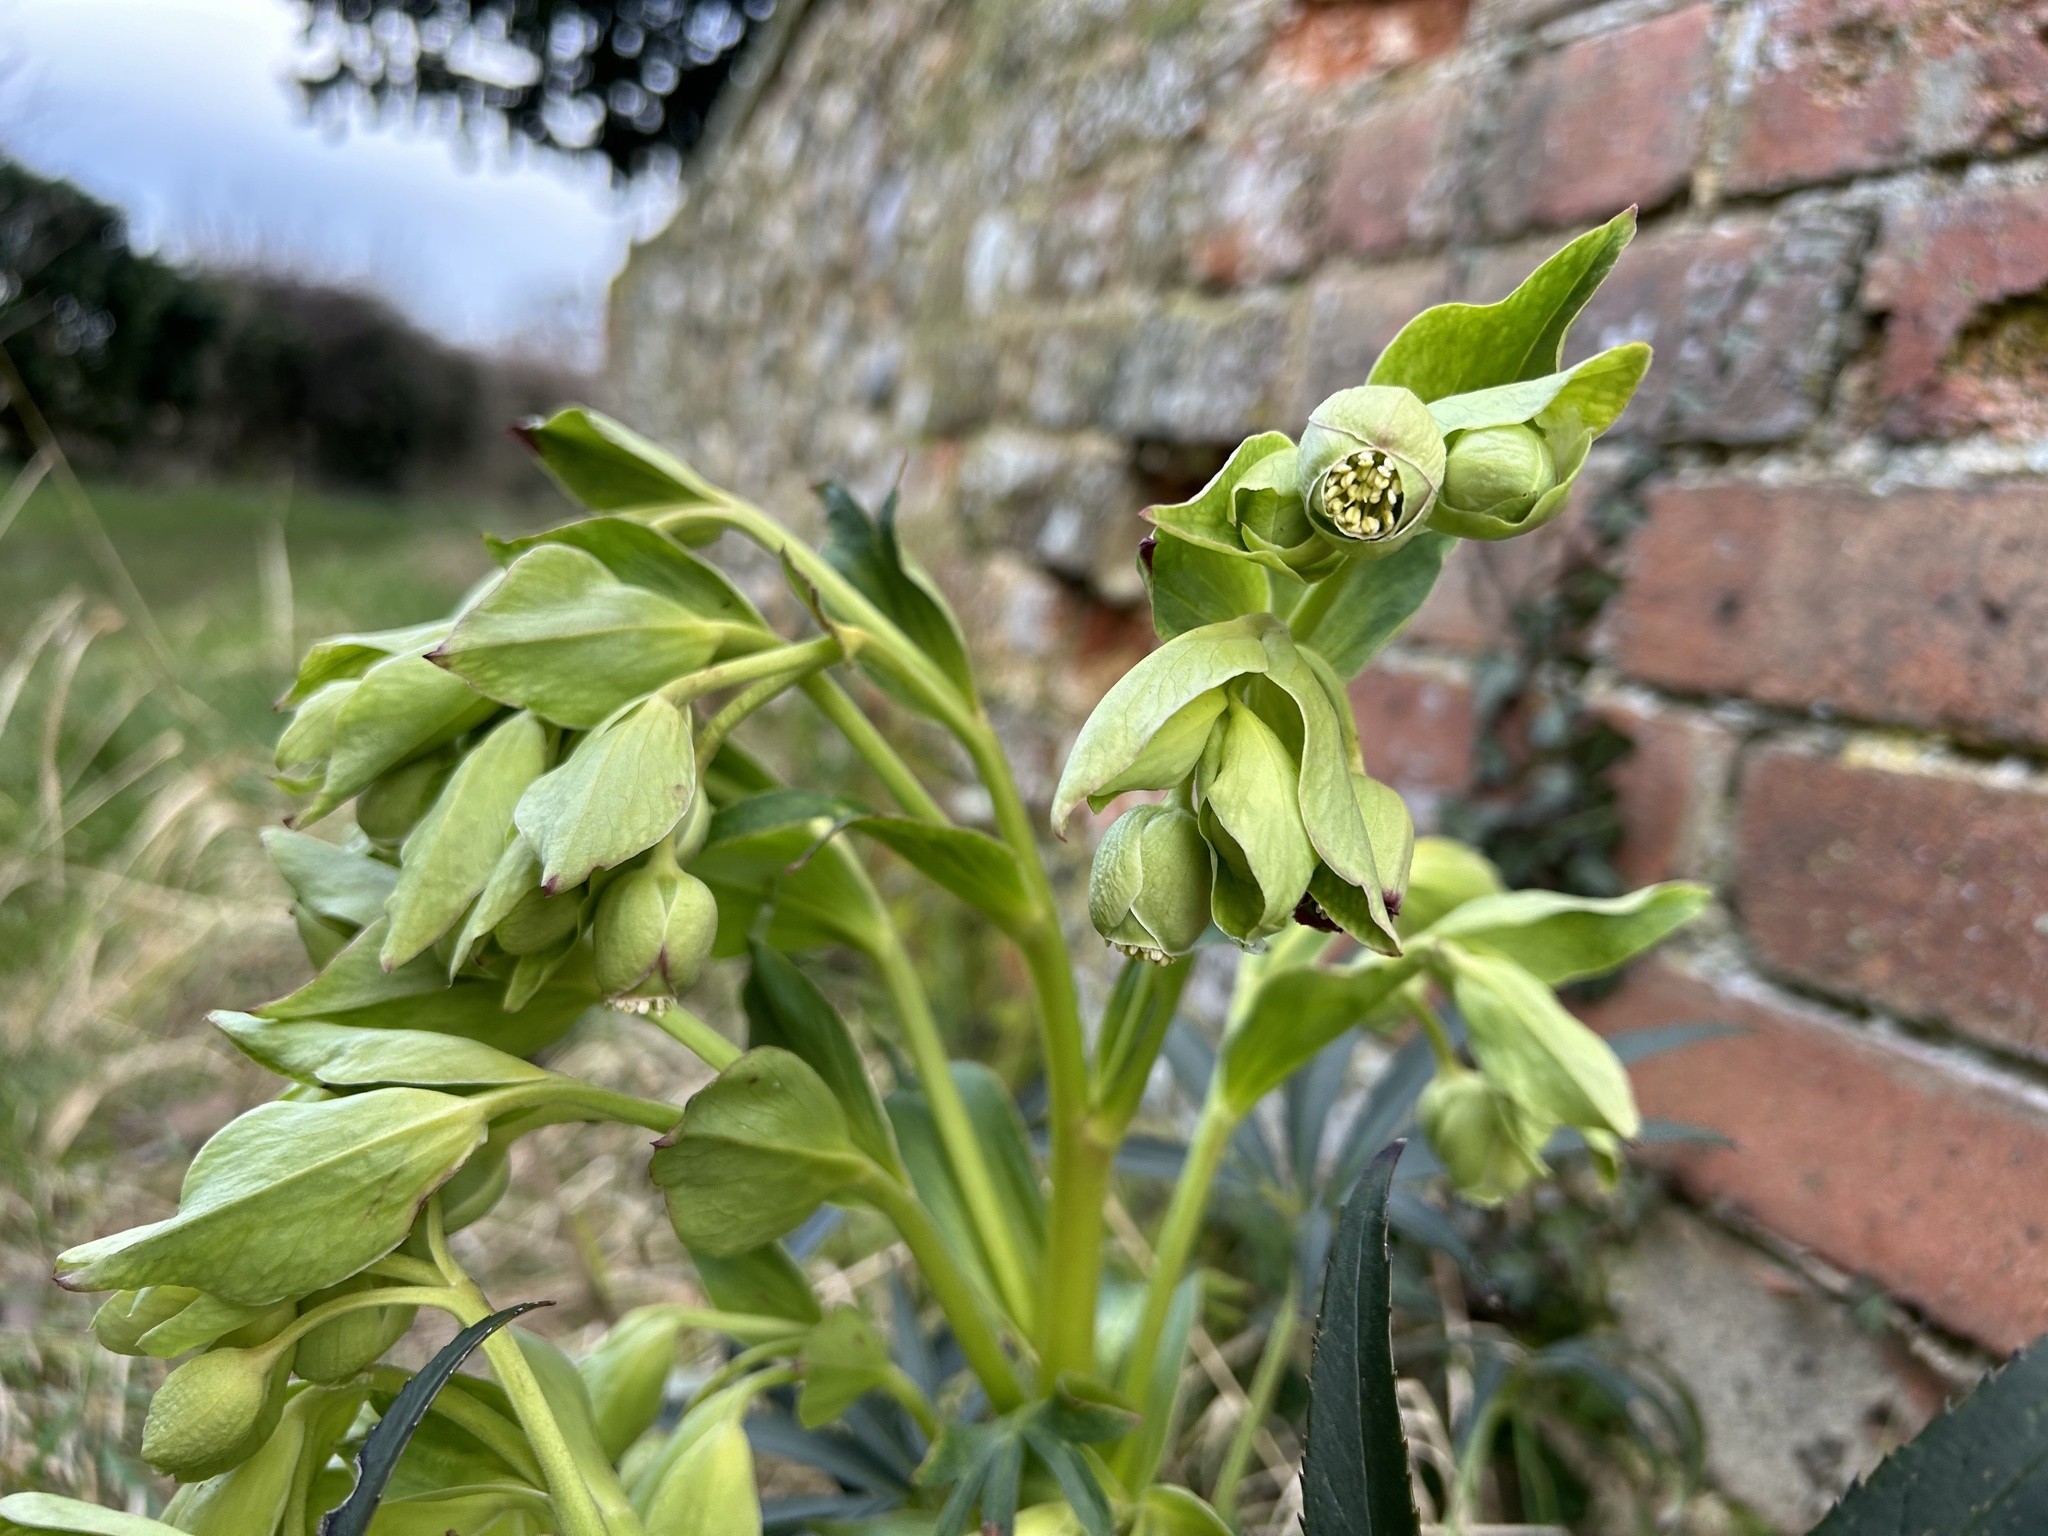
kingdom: Plantae
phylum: Tracheophyta
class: Magnoliopsida
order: Ranunculales
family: Ranunculaceae
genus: Helleborus
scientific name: Helleborus foetidus
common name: Stinking hellebore
